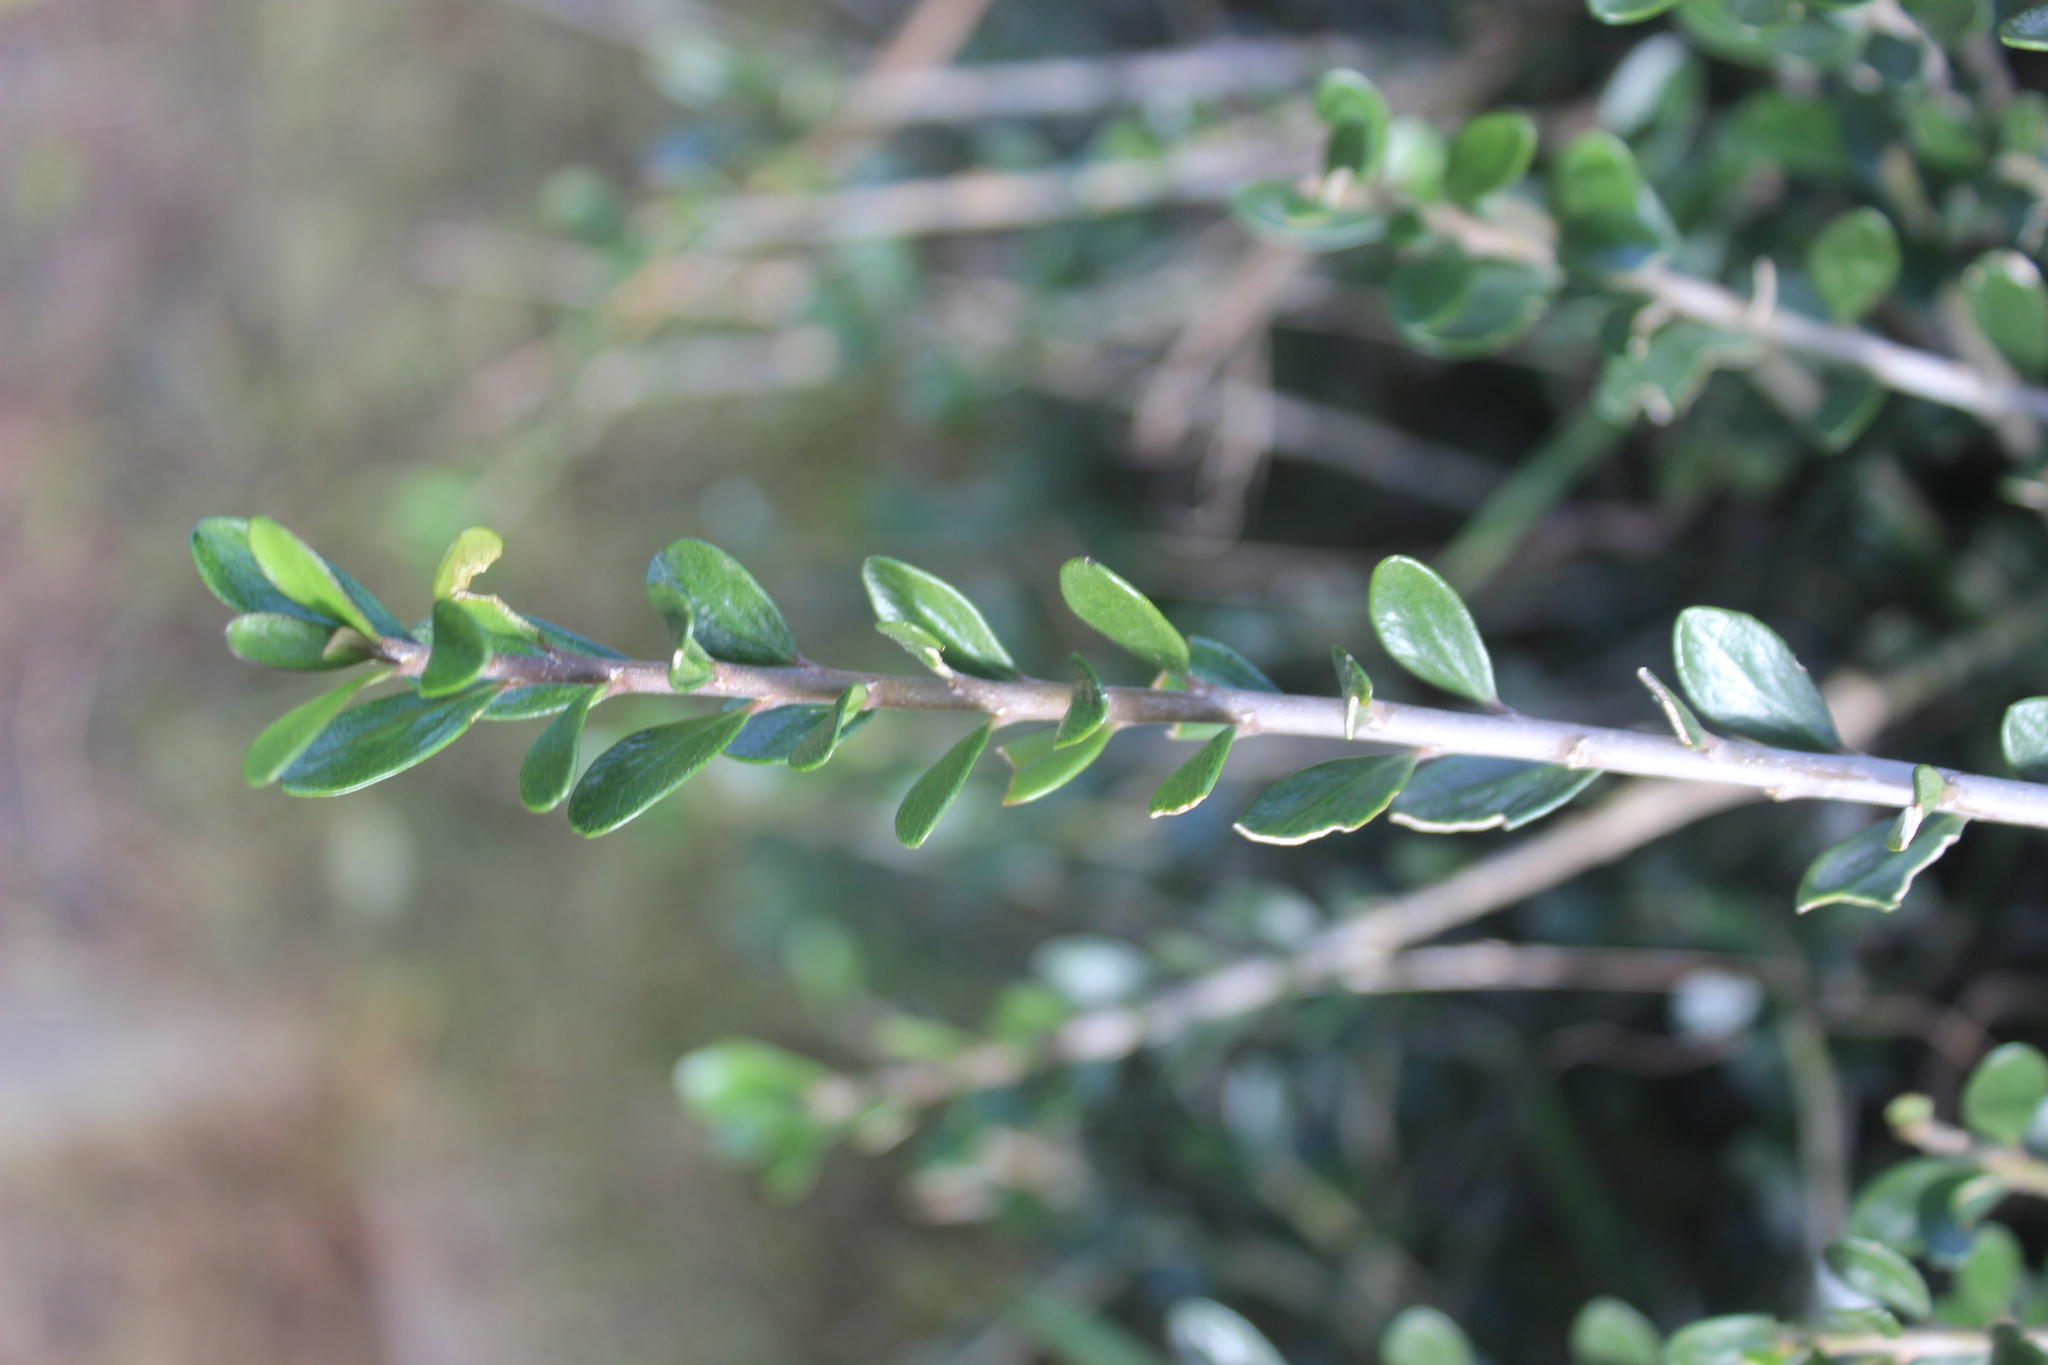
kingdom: Plantae
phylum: Tracheophyta
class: Magnoliopsida
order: Malpighiales
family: Violaceae
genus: Melicytus
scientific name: Melicytus orarius
